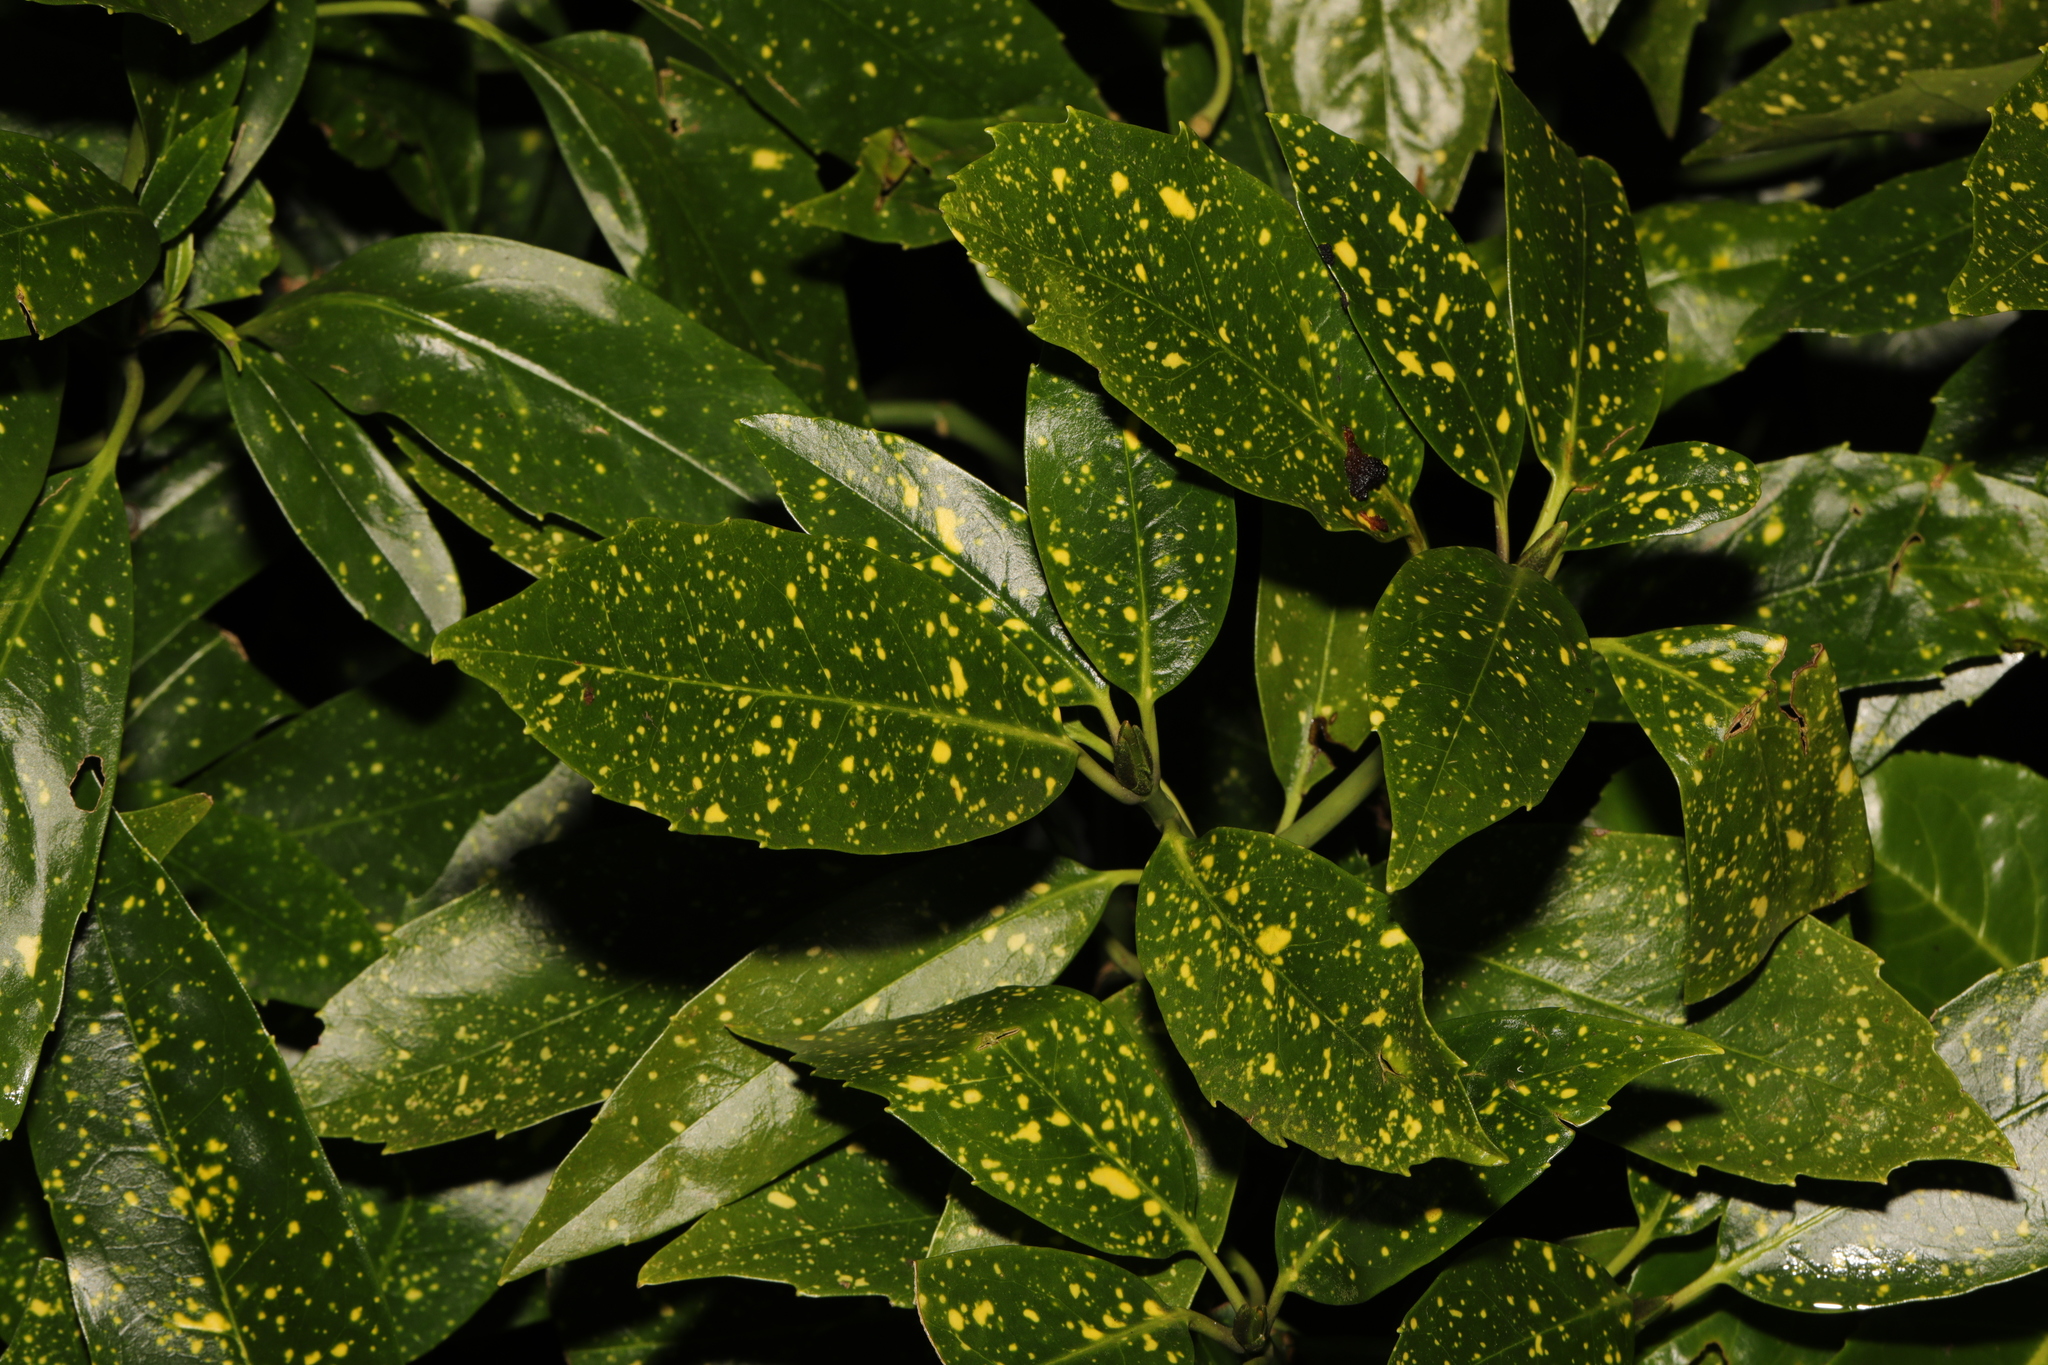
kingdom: Plantae
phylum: Tracheophyta
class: Magnoliopsida
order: Garryales
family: Garryaceae
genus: Aucuba
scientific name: Aucuba japonica
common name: Spotted-laurel
